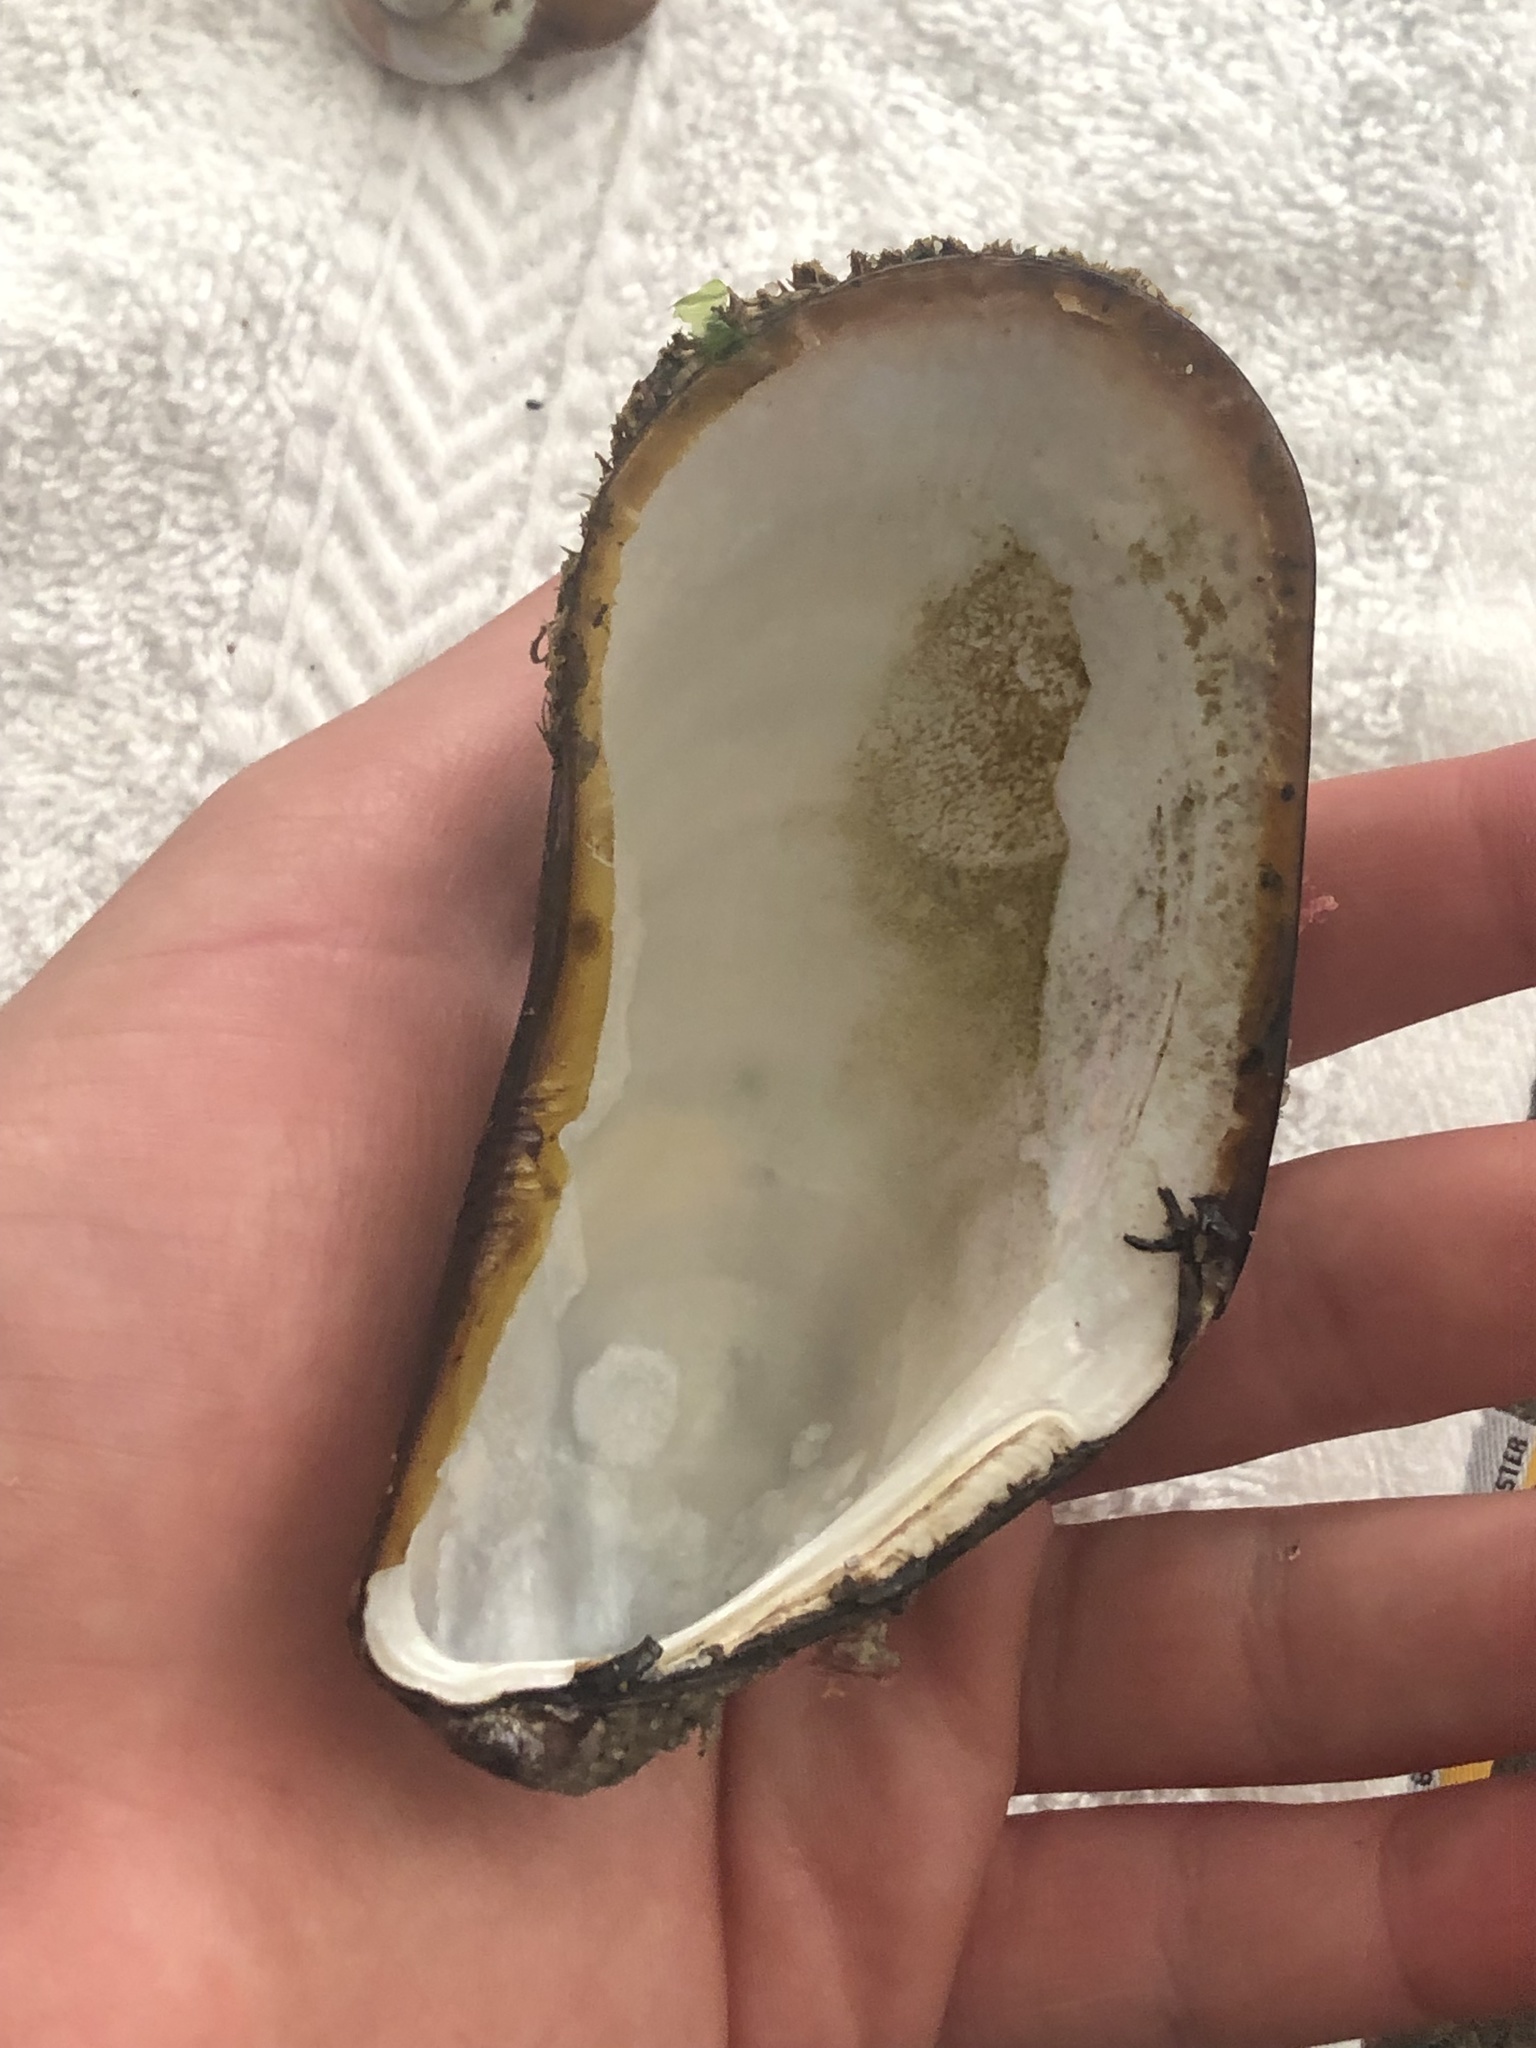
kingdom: Animalia
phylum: Mollusca
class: Bivalvia
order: Mytilida
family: Mytilidae
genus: Modiolus
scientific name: Modiolus capax
